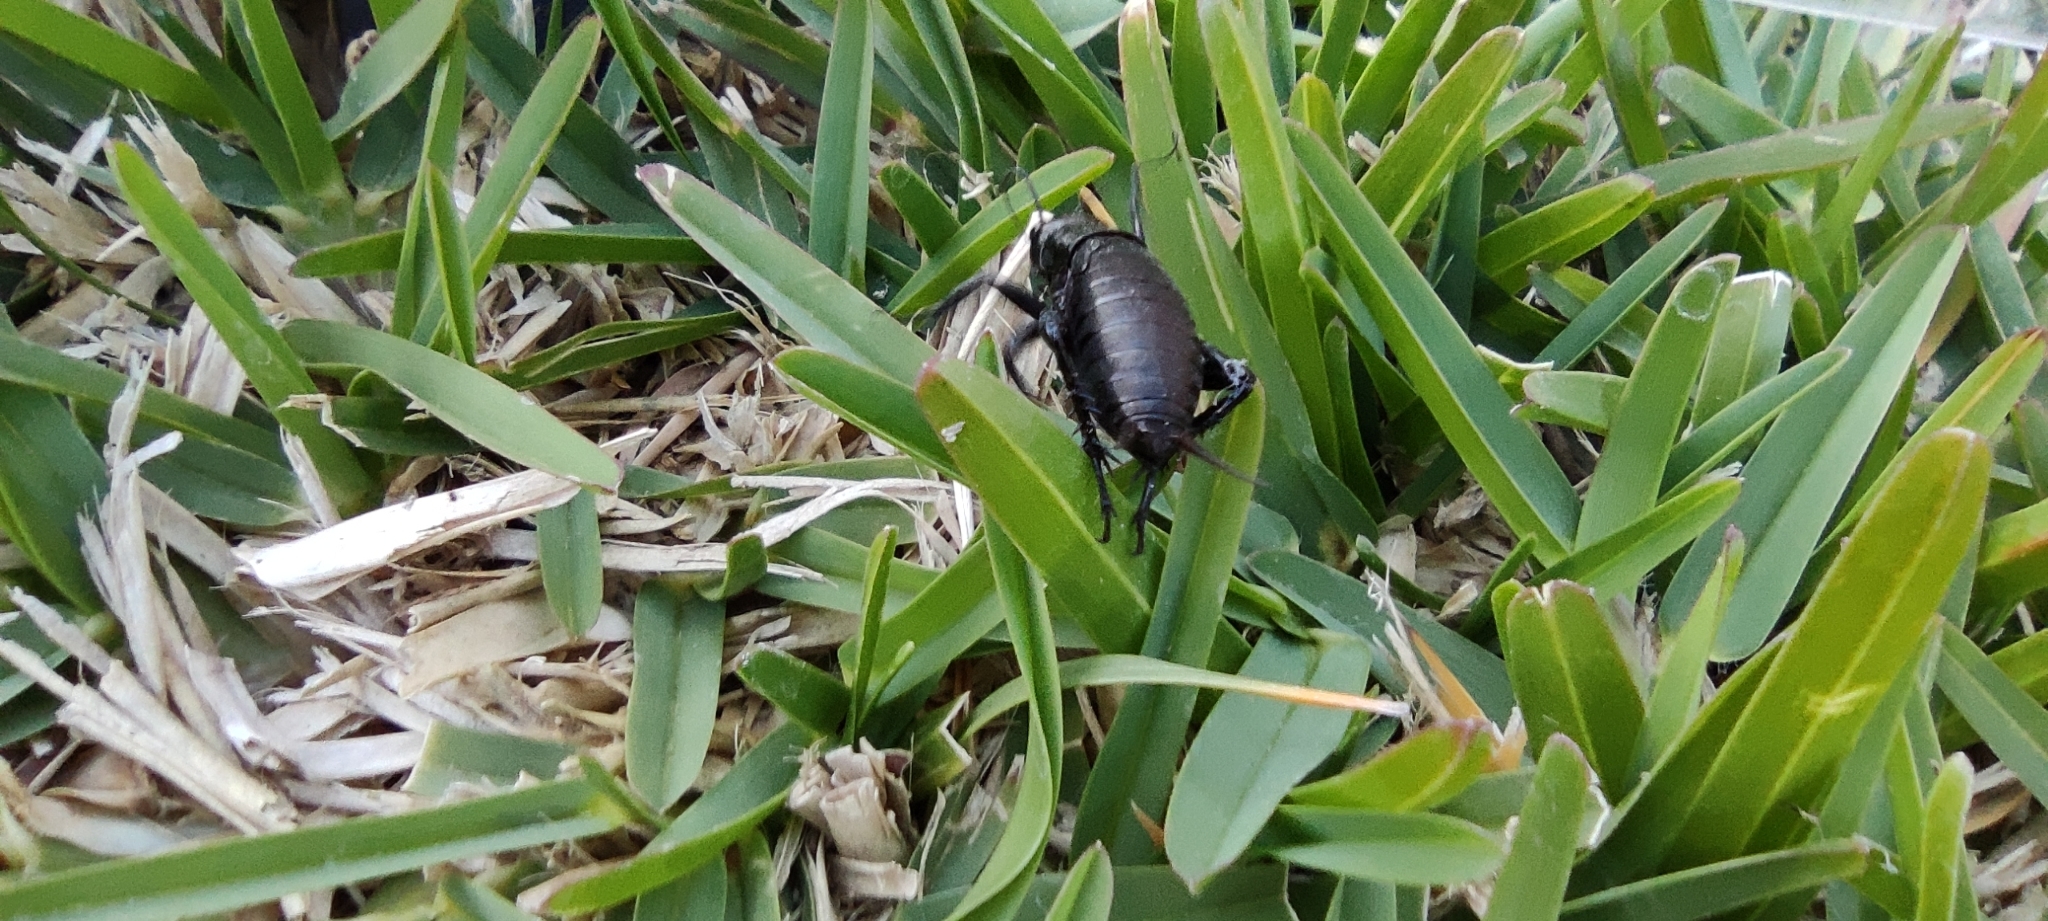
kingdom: Animalia
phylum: Arthropoda
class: Insecta
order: Orthoptera
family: Gryllidae
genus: Gryllus
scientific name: Gryllus bimaculatus
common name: Two-spotted cricket
